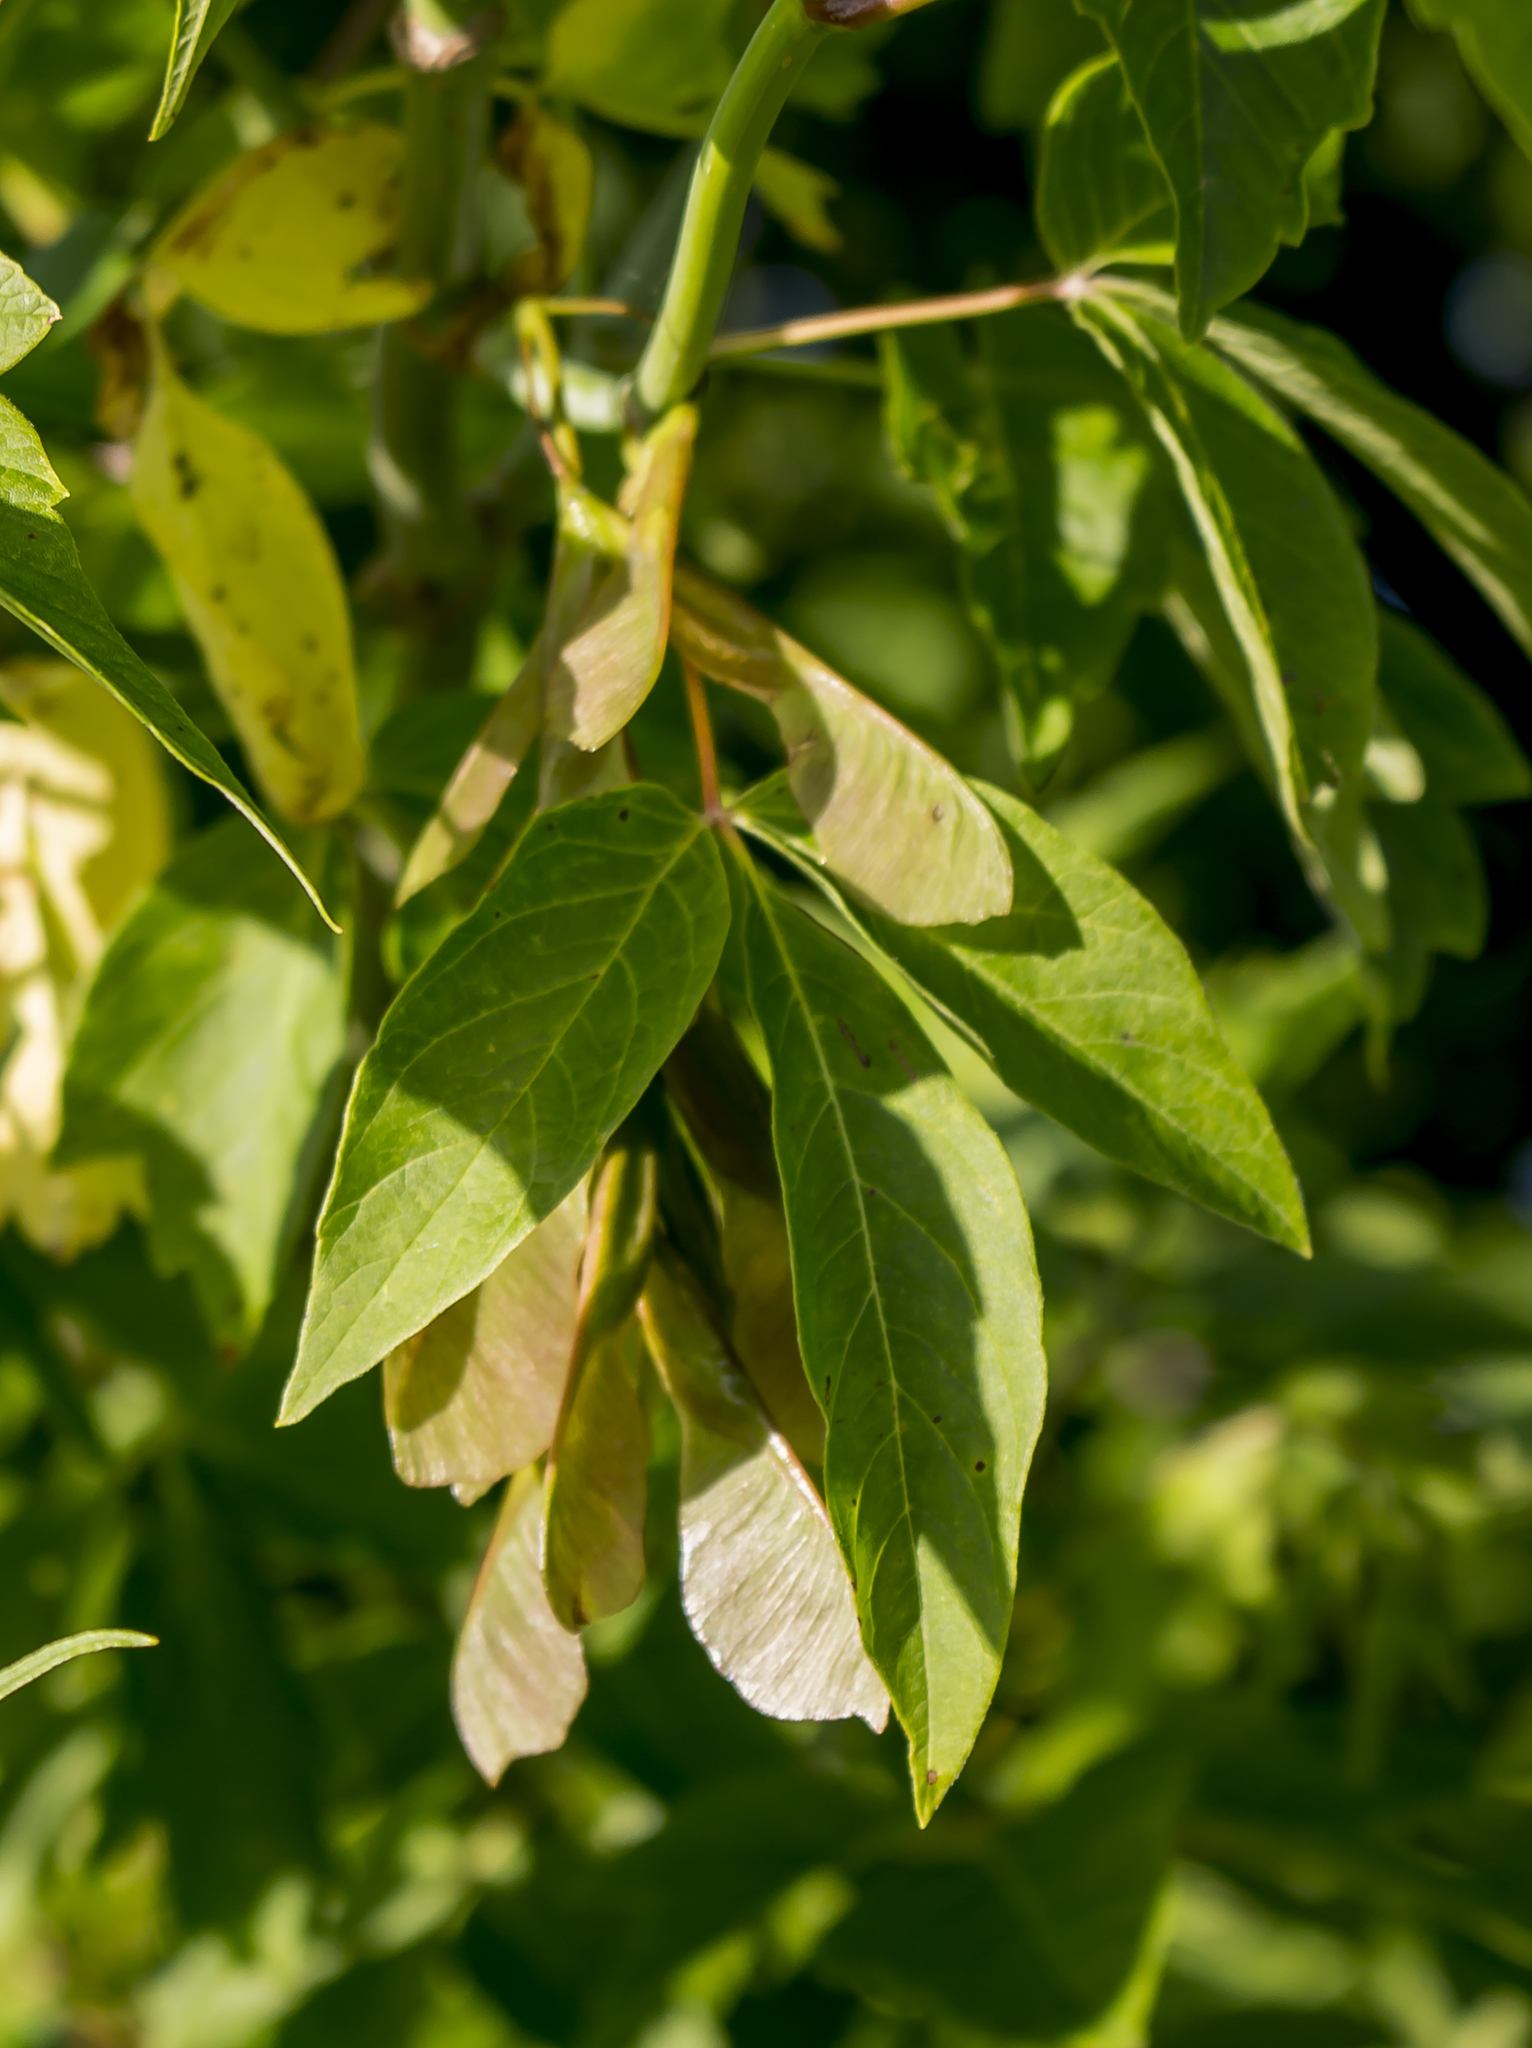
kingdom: Plantae
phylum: Tracheophyta
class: Magnoliopsida
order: Sapindales
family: Sapindaceae
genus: Acer
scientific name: Acer negundo
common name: Ashleaf maple
